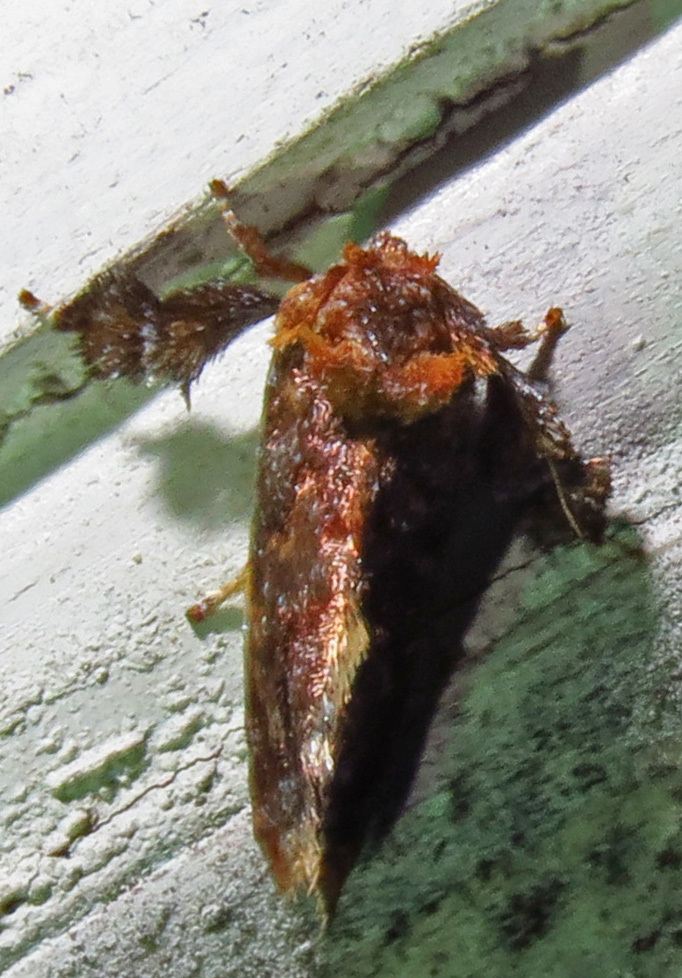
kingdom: Animalia
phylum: Arthropoda
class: Insecta
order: Lepidoptera
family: Limacodidae
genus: Isochaetes
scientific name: Isochaetes beutenmuelleri
